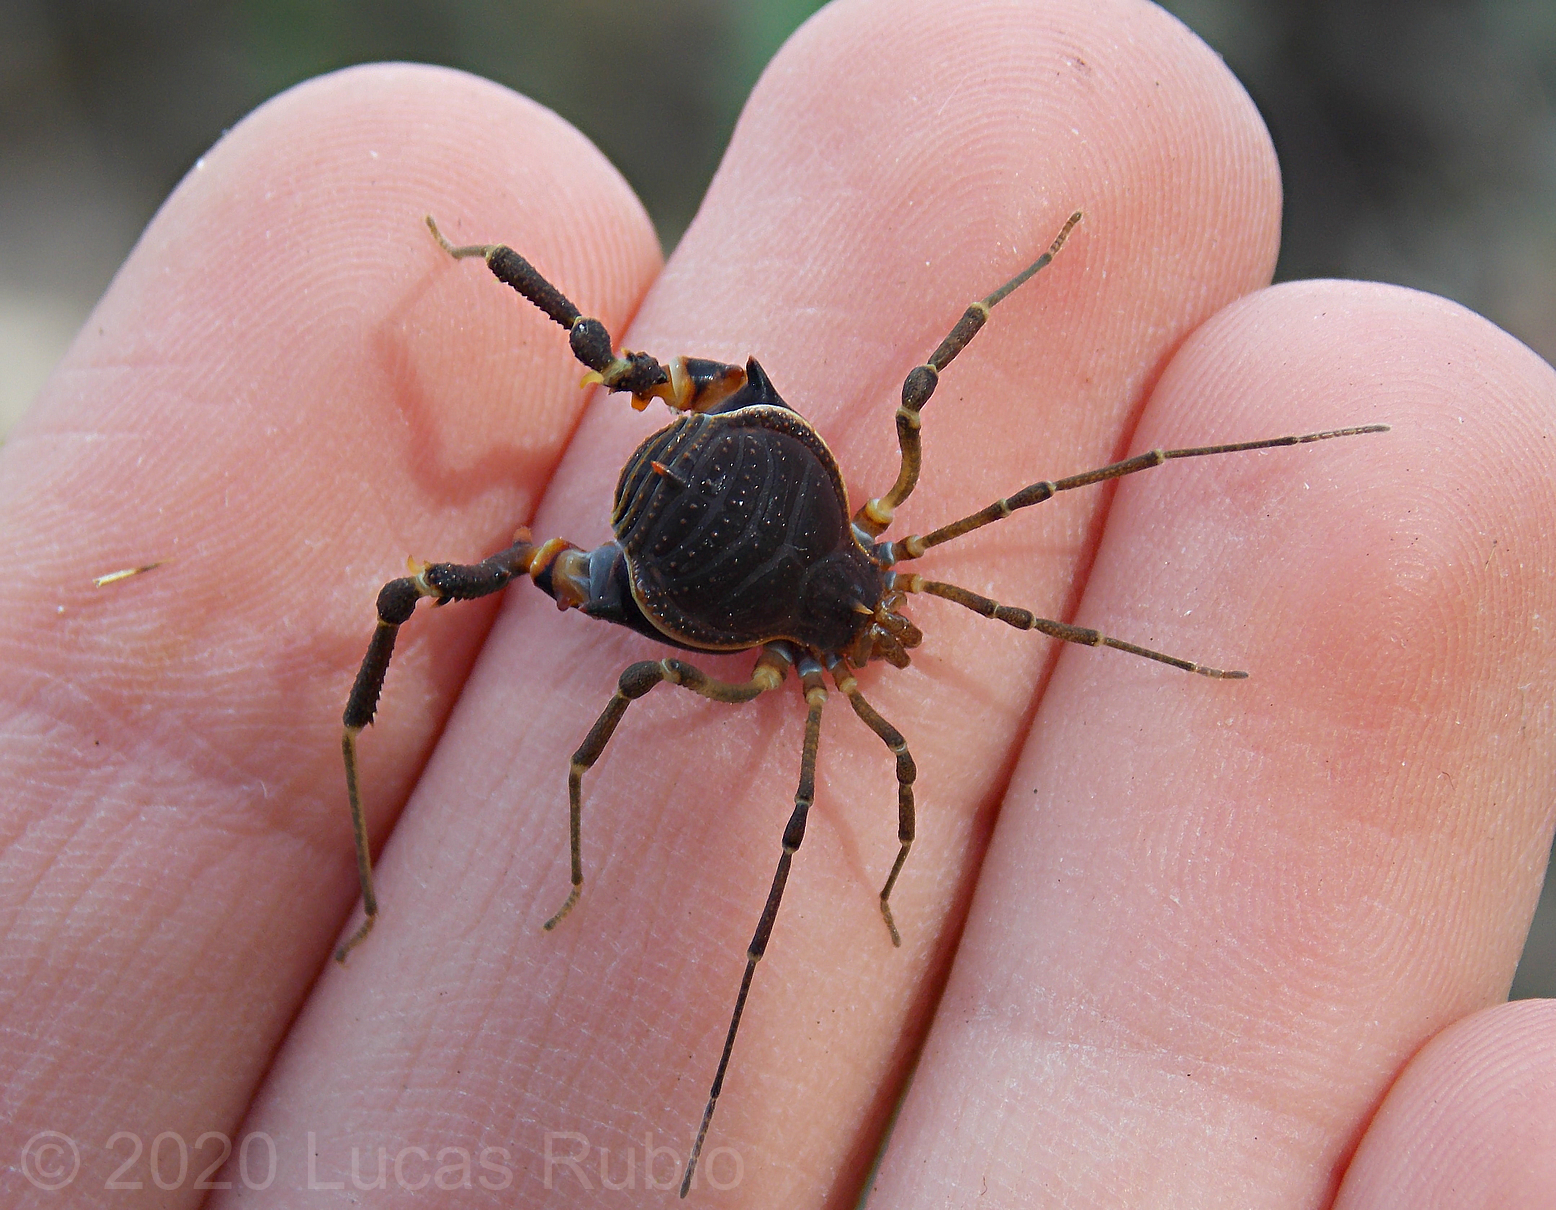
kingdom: Animalia
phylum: Arthropoda
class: Arachnida
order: Opiliones
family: Gonyleptidae
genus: Acanthopachylus
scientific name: Acanthopachylus robustus
